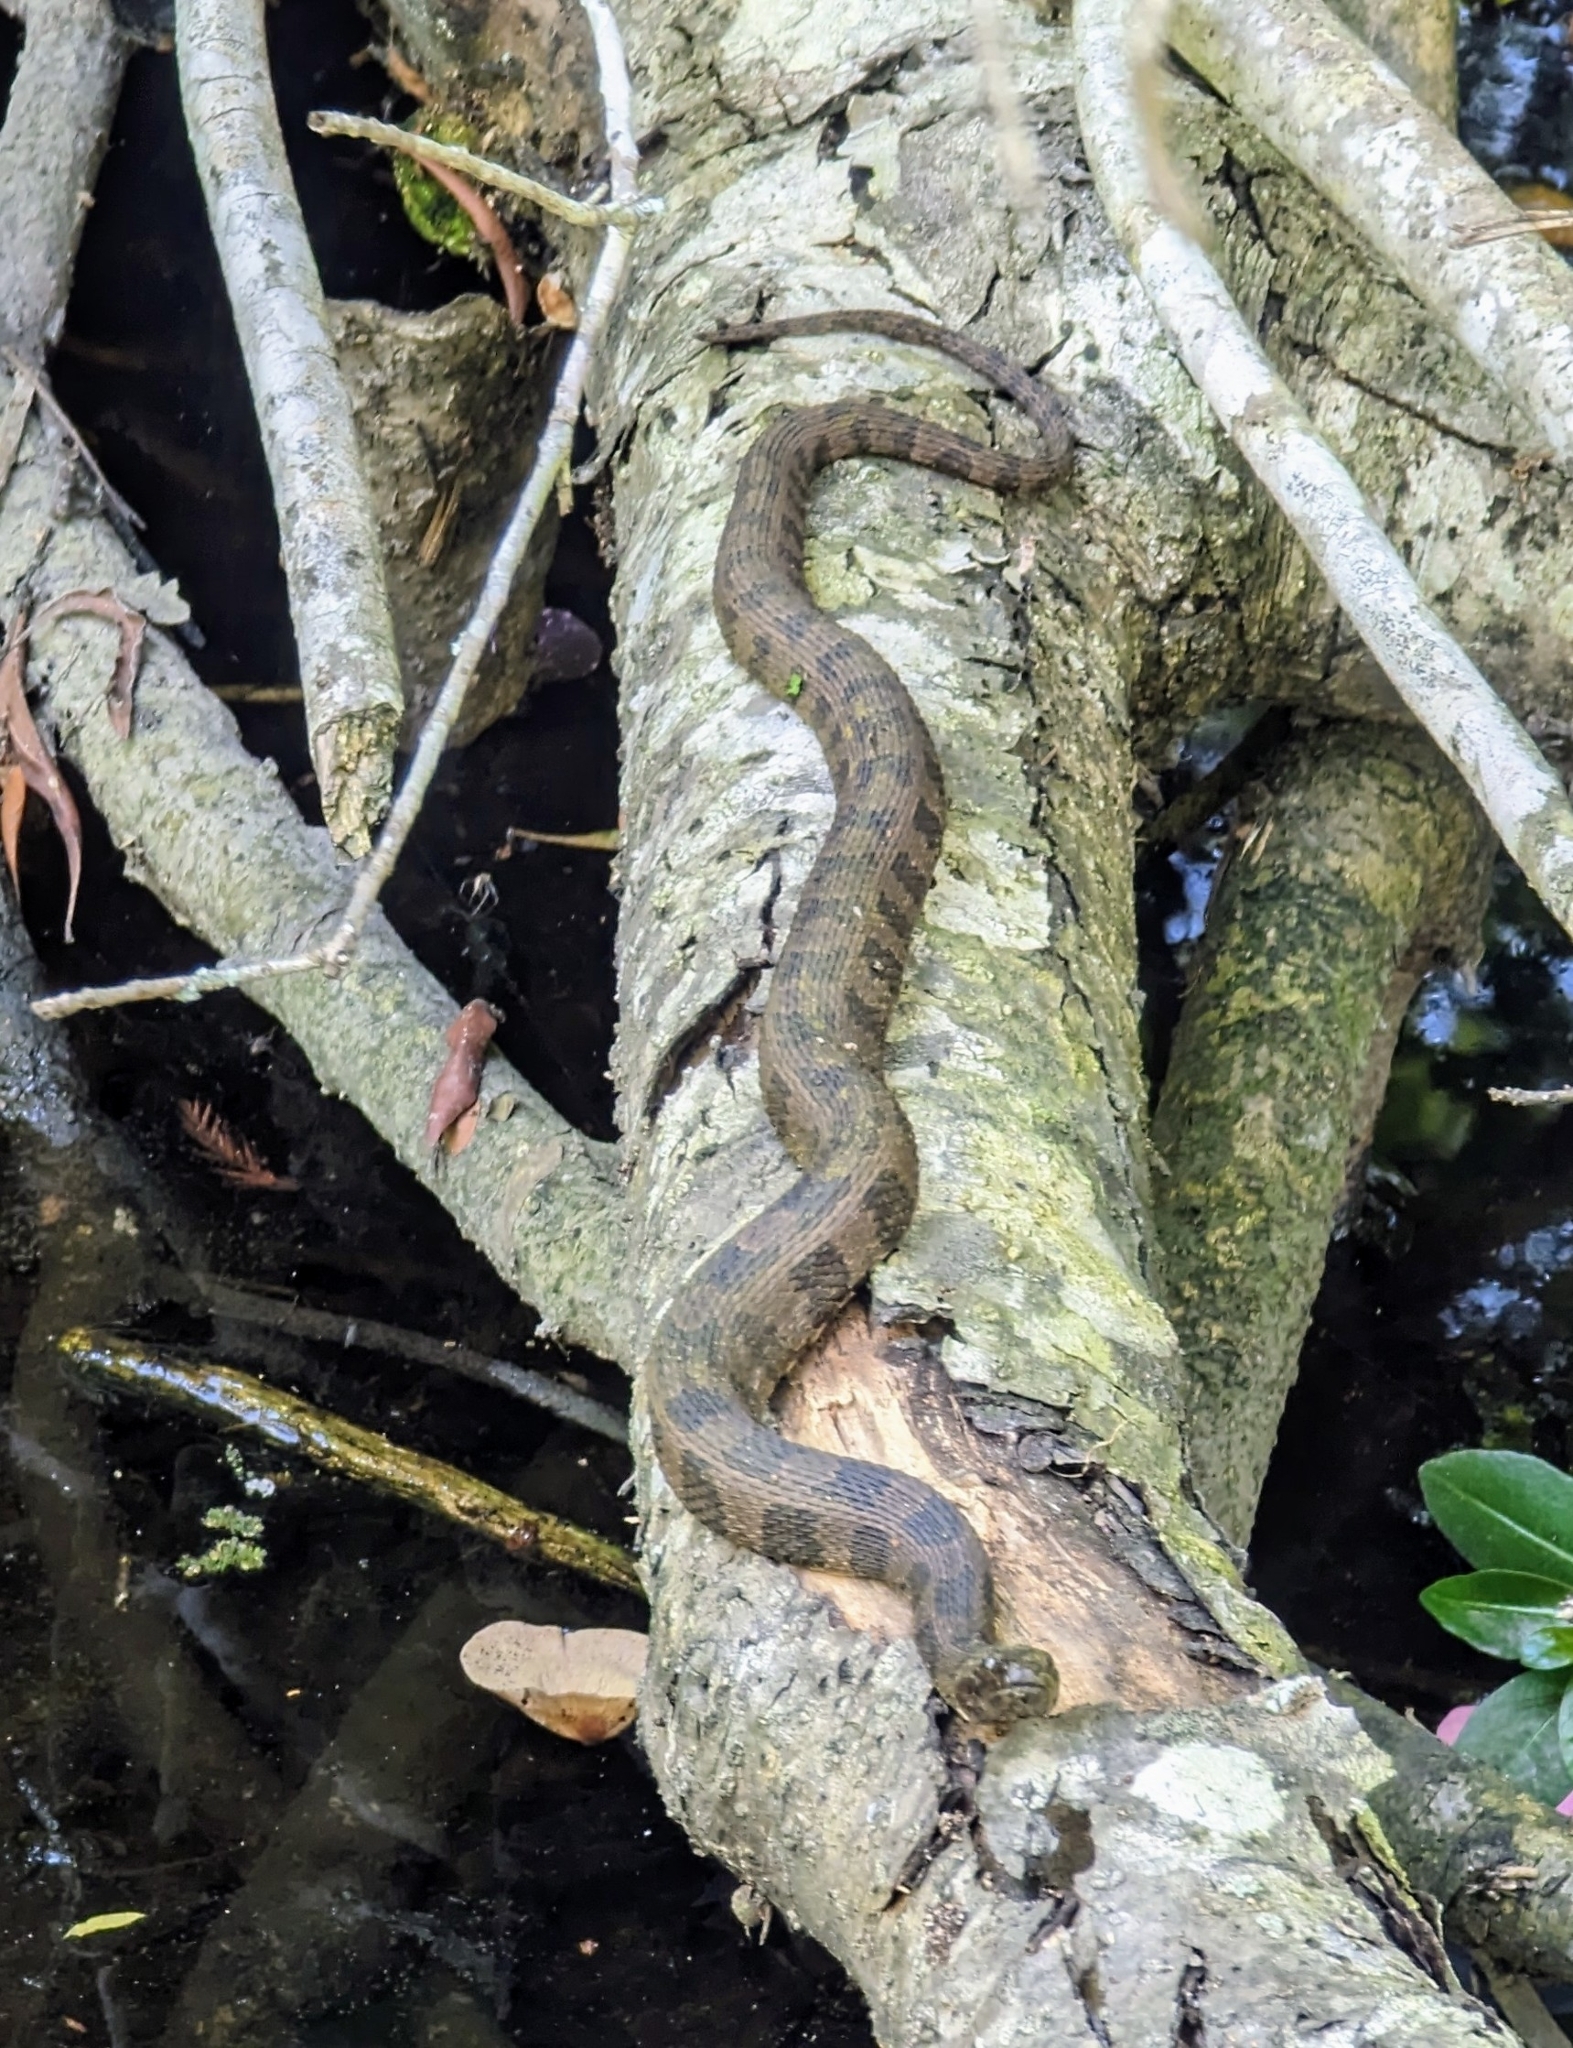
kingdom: Animalia
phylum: Chordata
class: Squamata
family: Colubridae
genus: Nerodia
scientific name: Nerodia taxispilota
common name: Brown water snake
